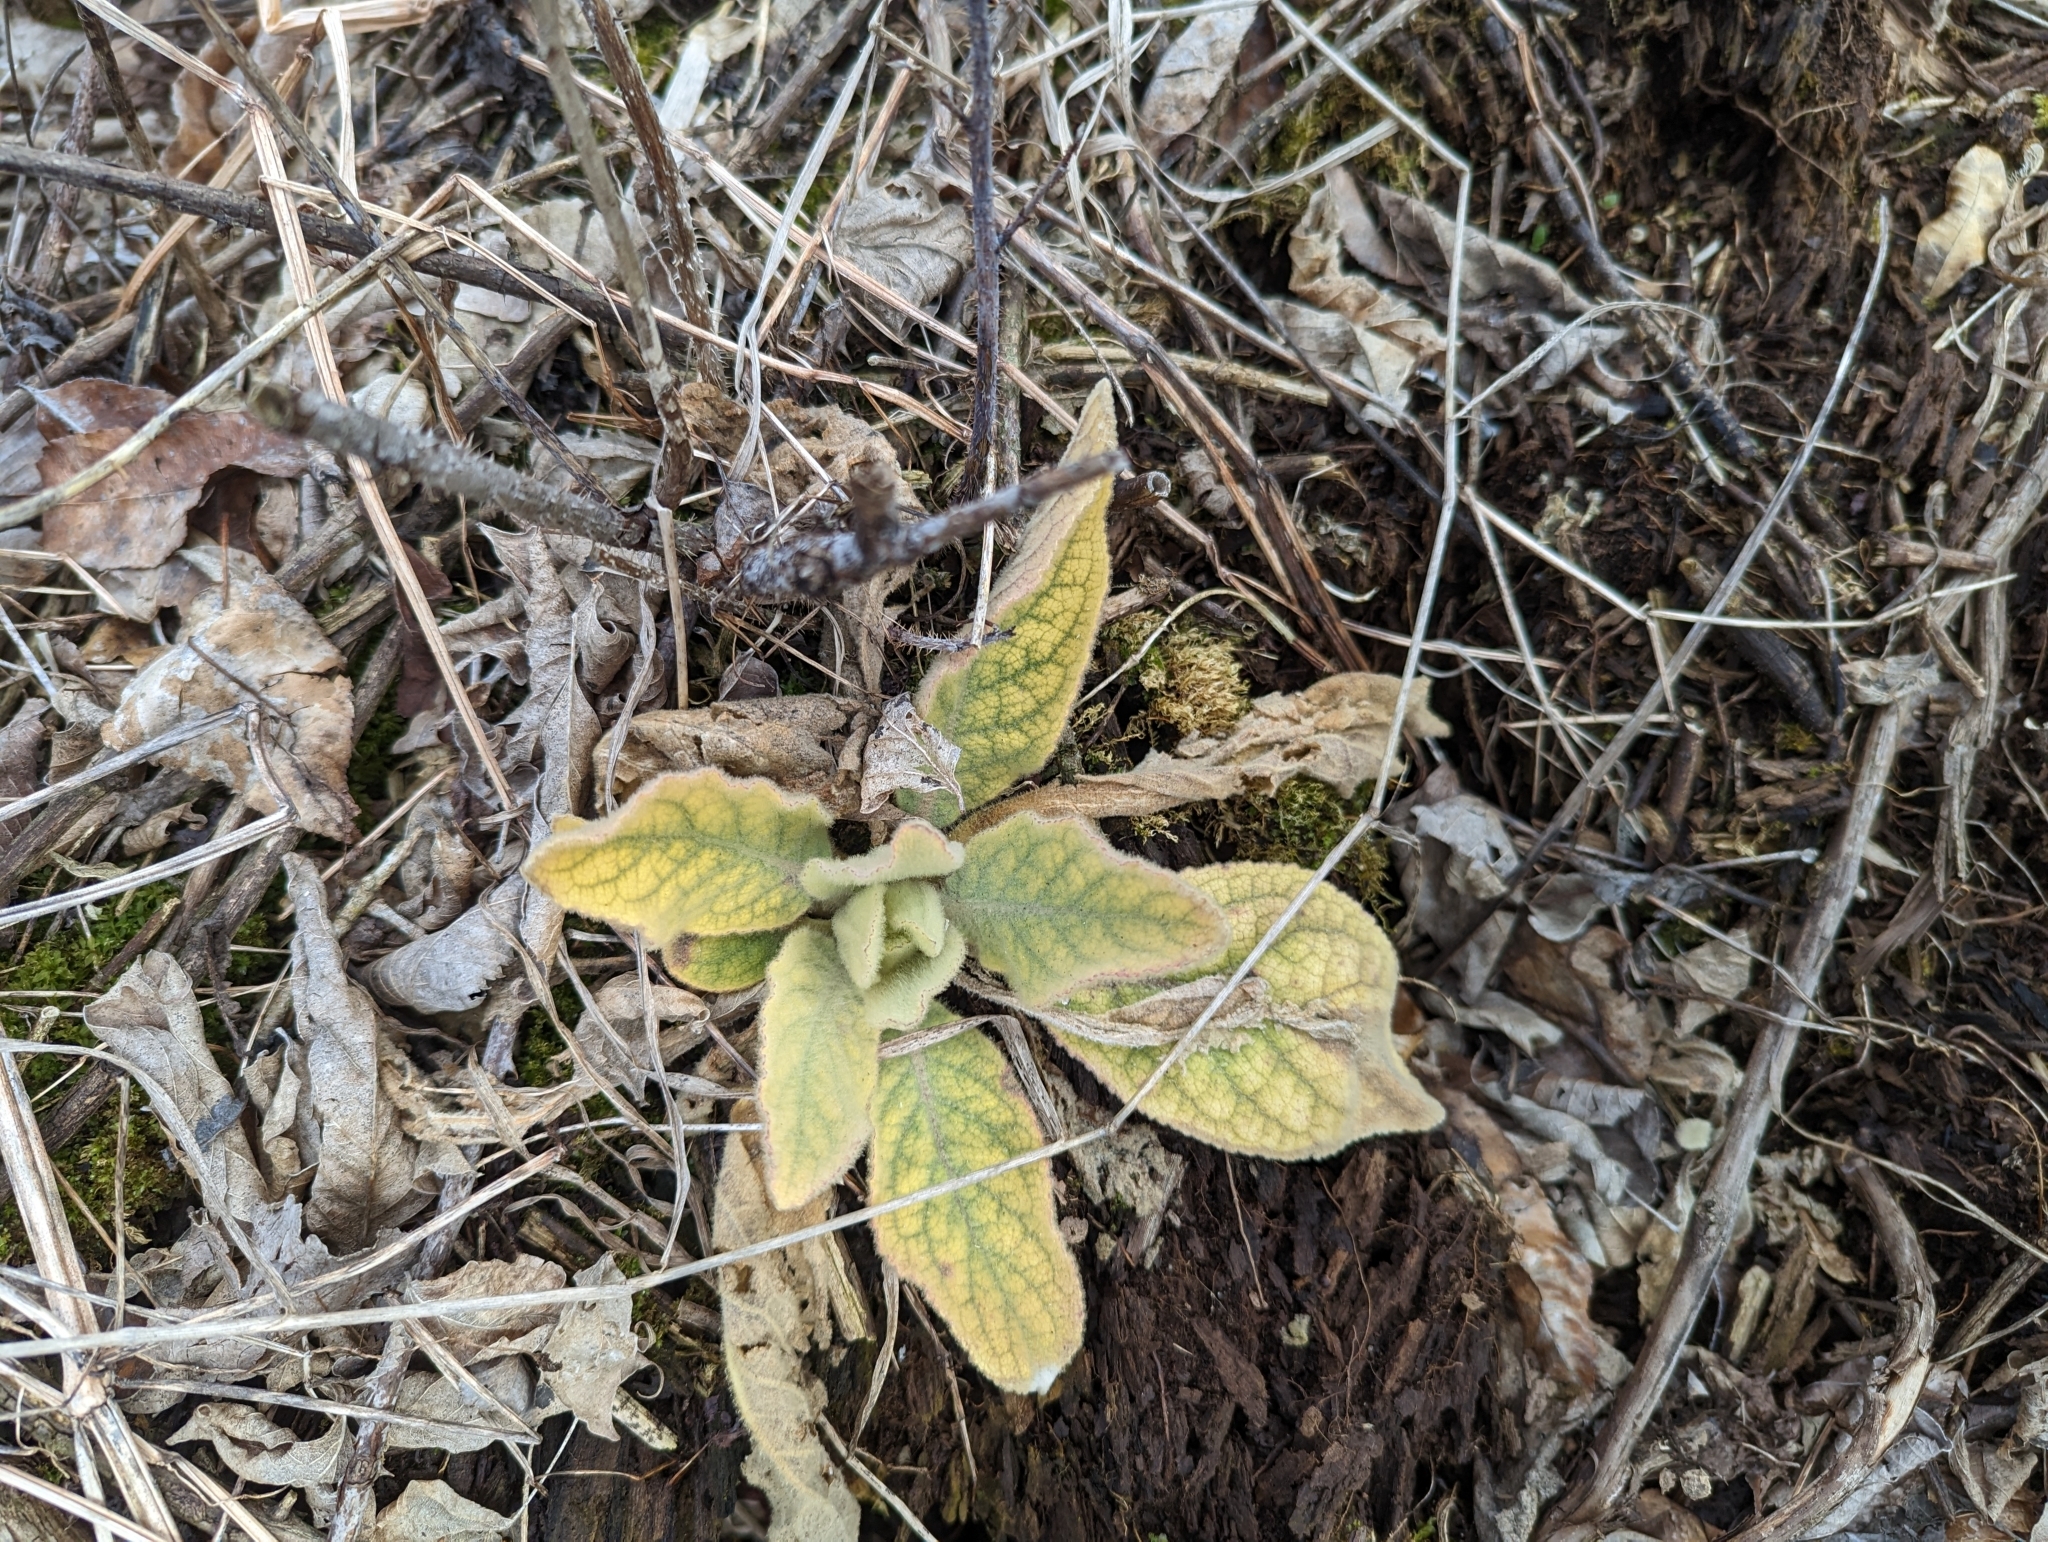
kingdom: Plantae
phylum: Tracheophyta
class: Magnoliopsida
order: Lamiales
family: Scrophulariaceae
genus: Verbascum
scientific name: Verbascum thapsus
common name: Common mullein
